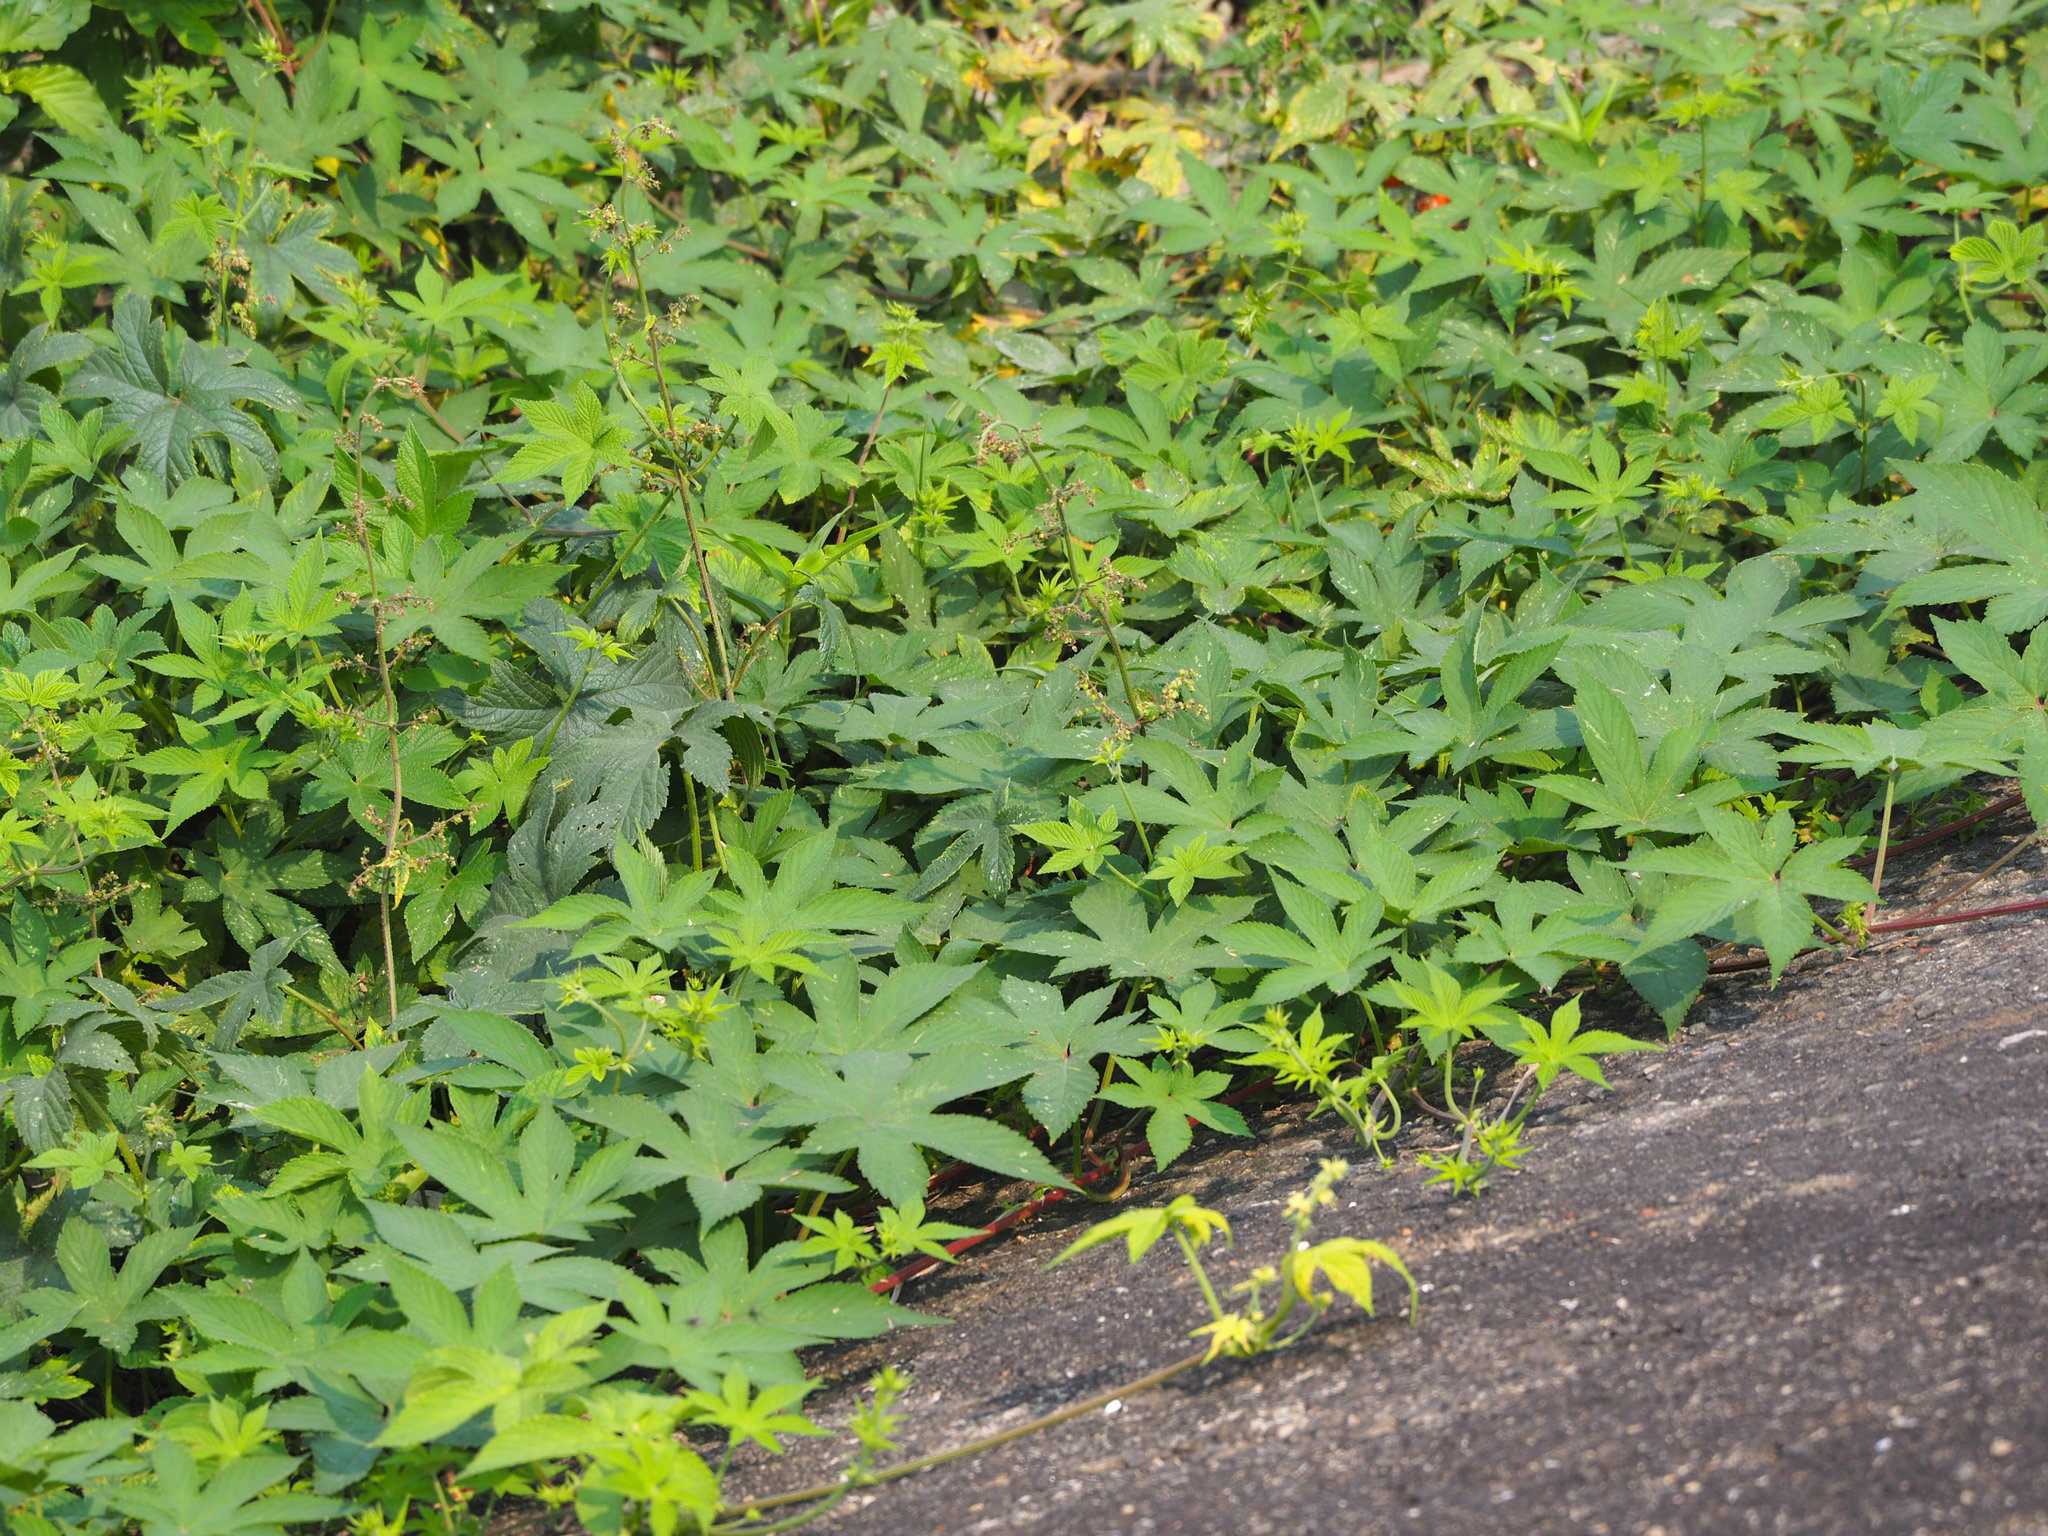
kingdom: Plantae
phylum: Tracheophyta
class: Magnoliopsida
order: Rosales
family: Cannabaceae
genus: Humulus
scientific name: Humulus scandens
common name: Japanese hop
